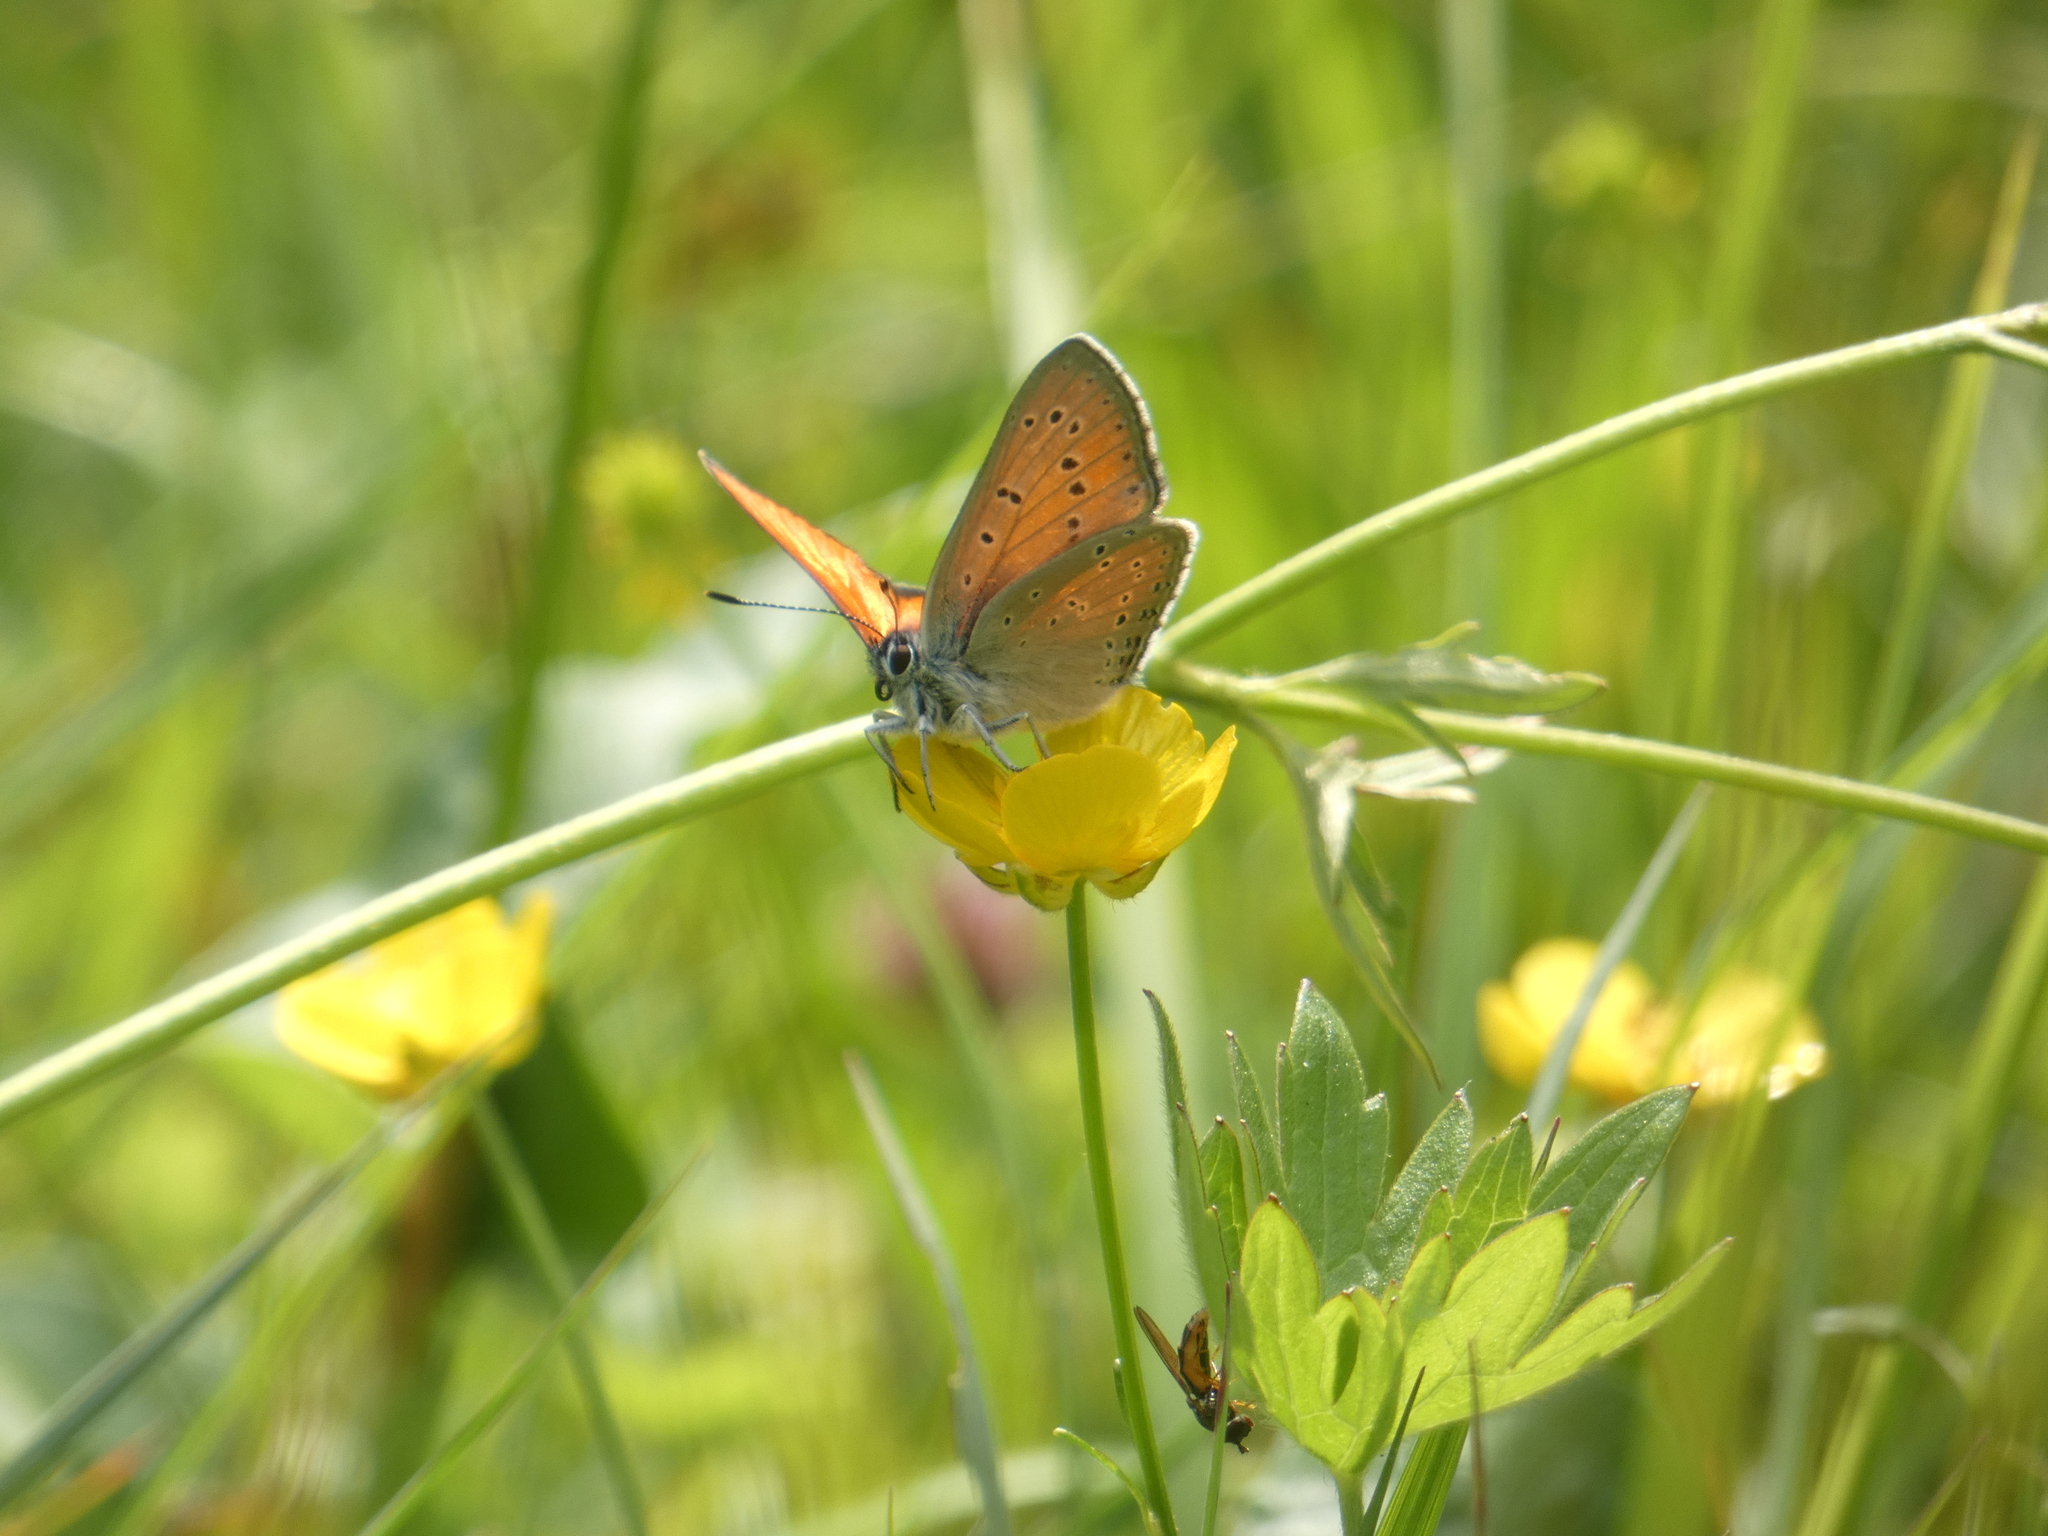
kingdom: Animalia
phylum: Arthropoda
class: Insecta
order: Lepidoptera
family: Lycaenidae
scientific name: Lycaenidae
